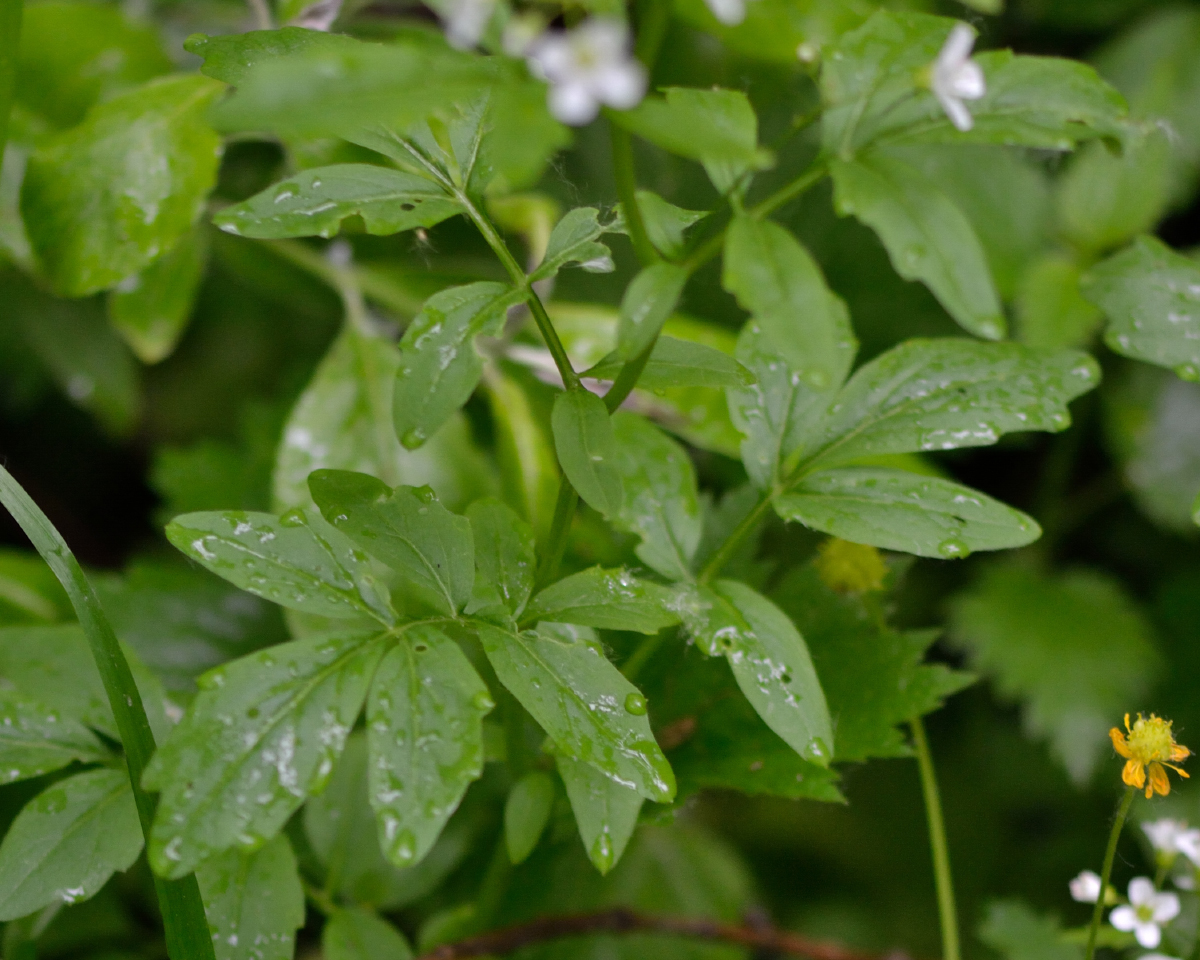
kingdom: Plantae
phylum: Tracheophyta
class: Magnoliopsida
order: Brassicales
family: Brassicaceae
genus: Cardamine
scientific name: Cardamine amara
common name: Large bitter-cress
